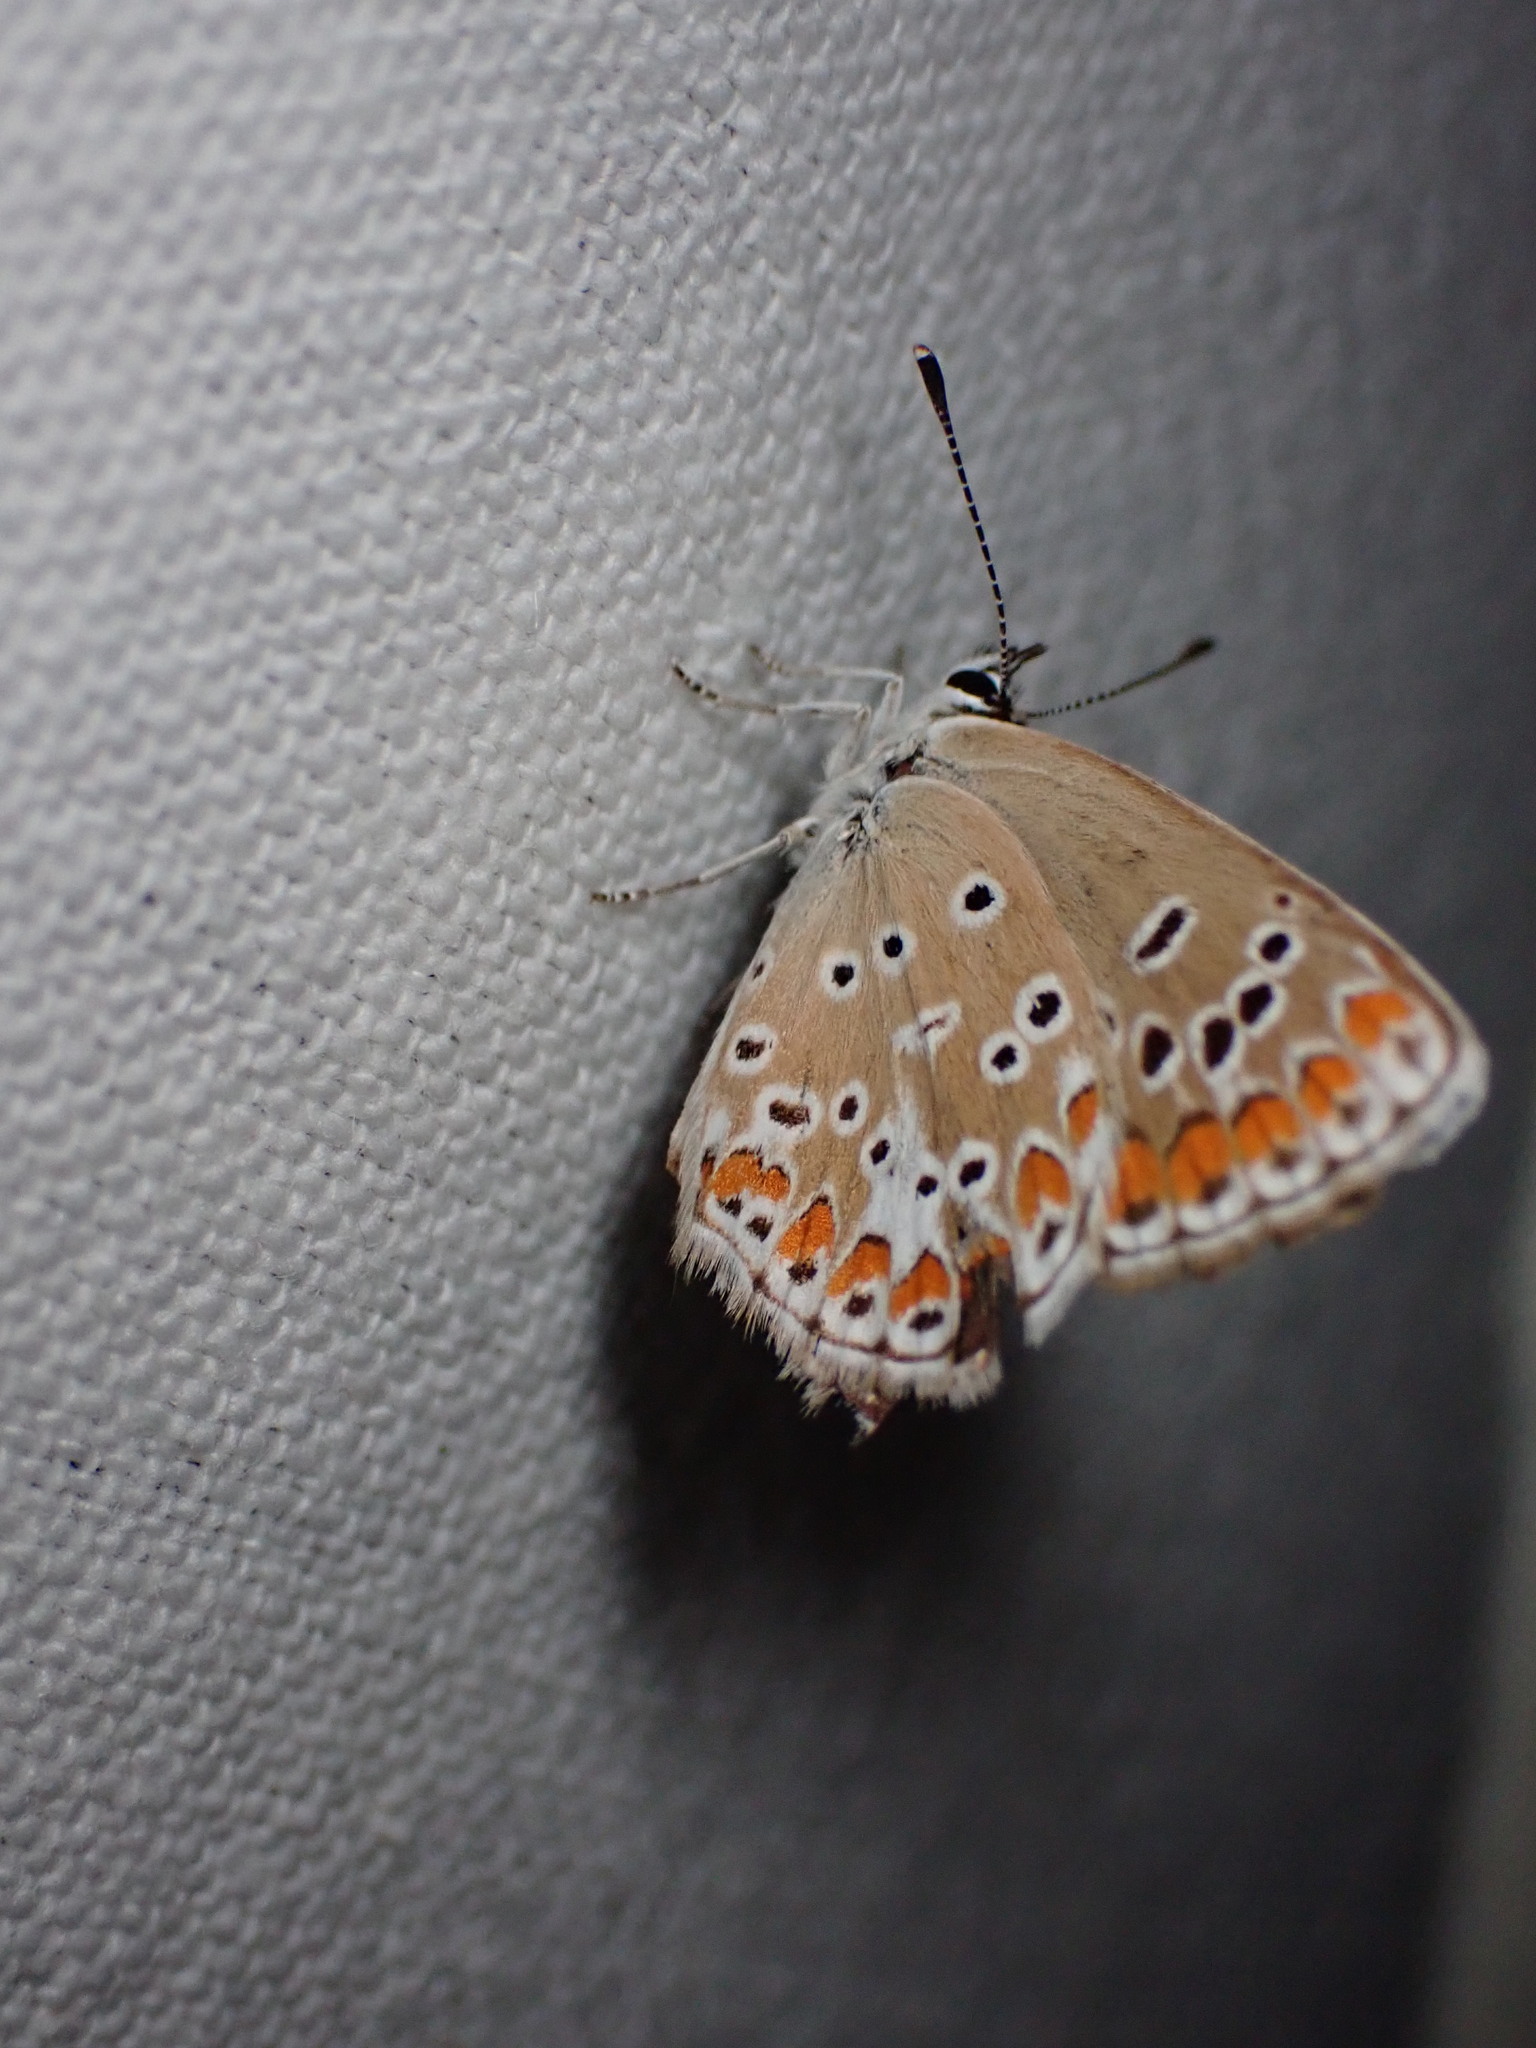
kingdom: Animalia
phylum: Arthropoda
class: Insecta
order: Lepidoptera
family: Lycaenidae
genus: Aricia
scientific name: Aricia agestis
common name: Brown argus
